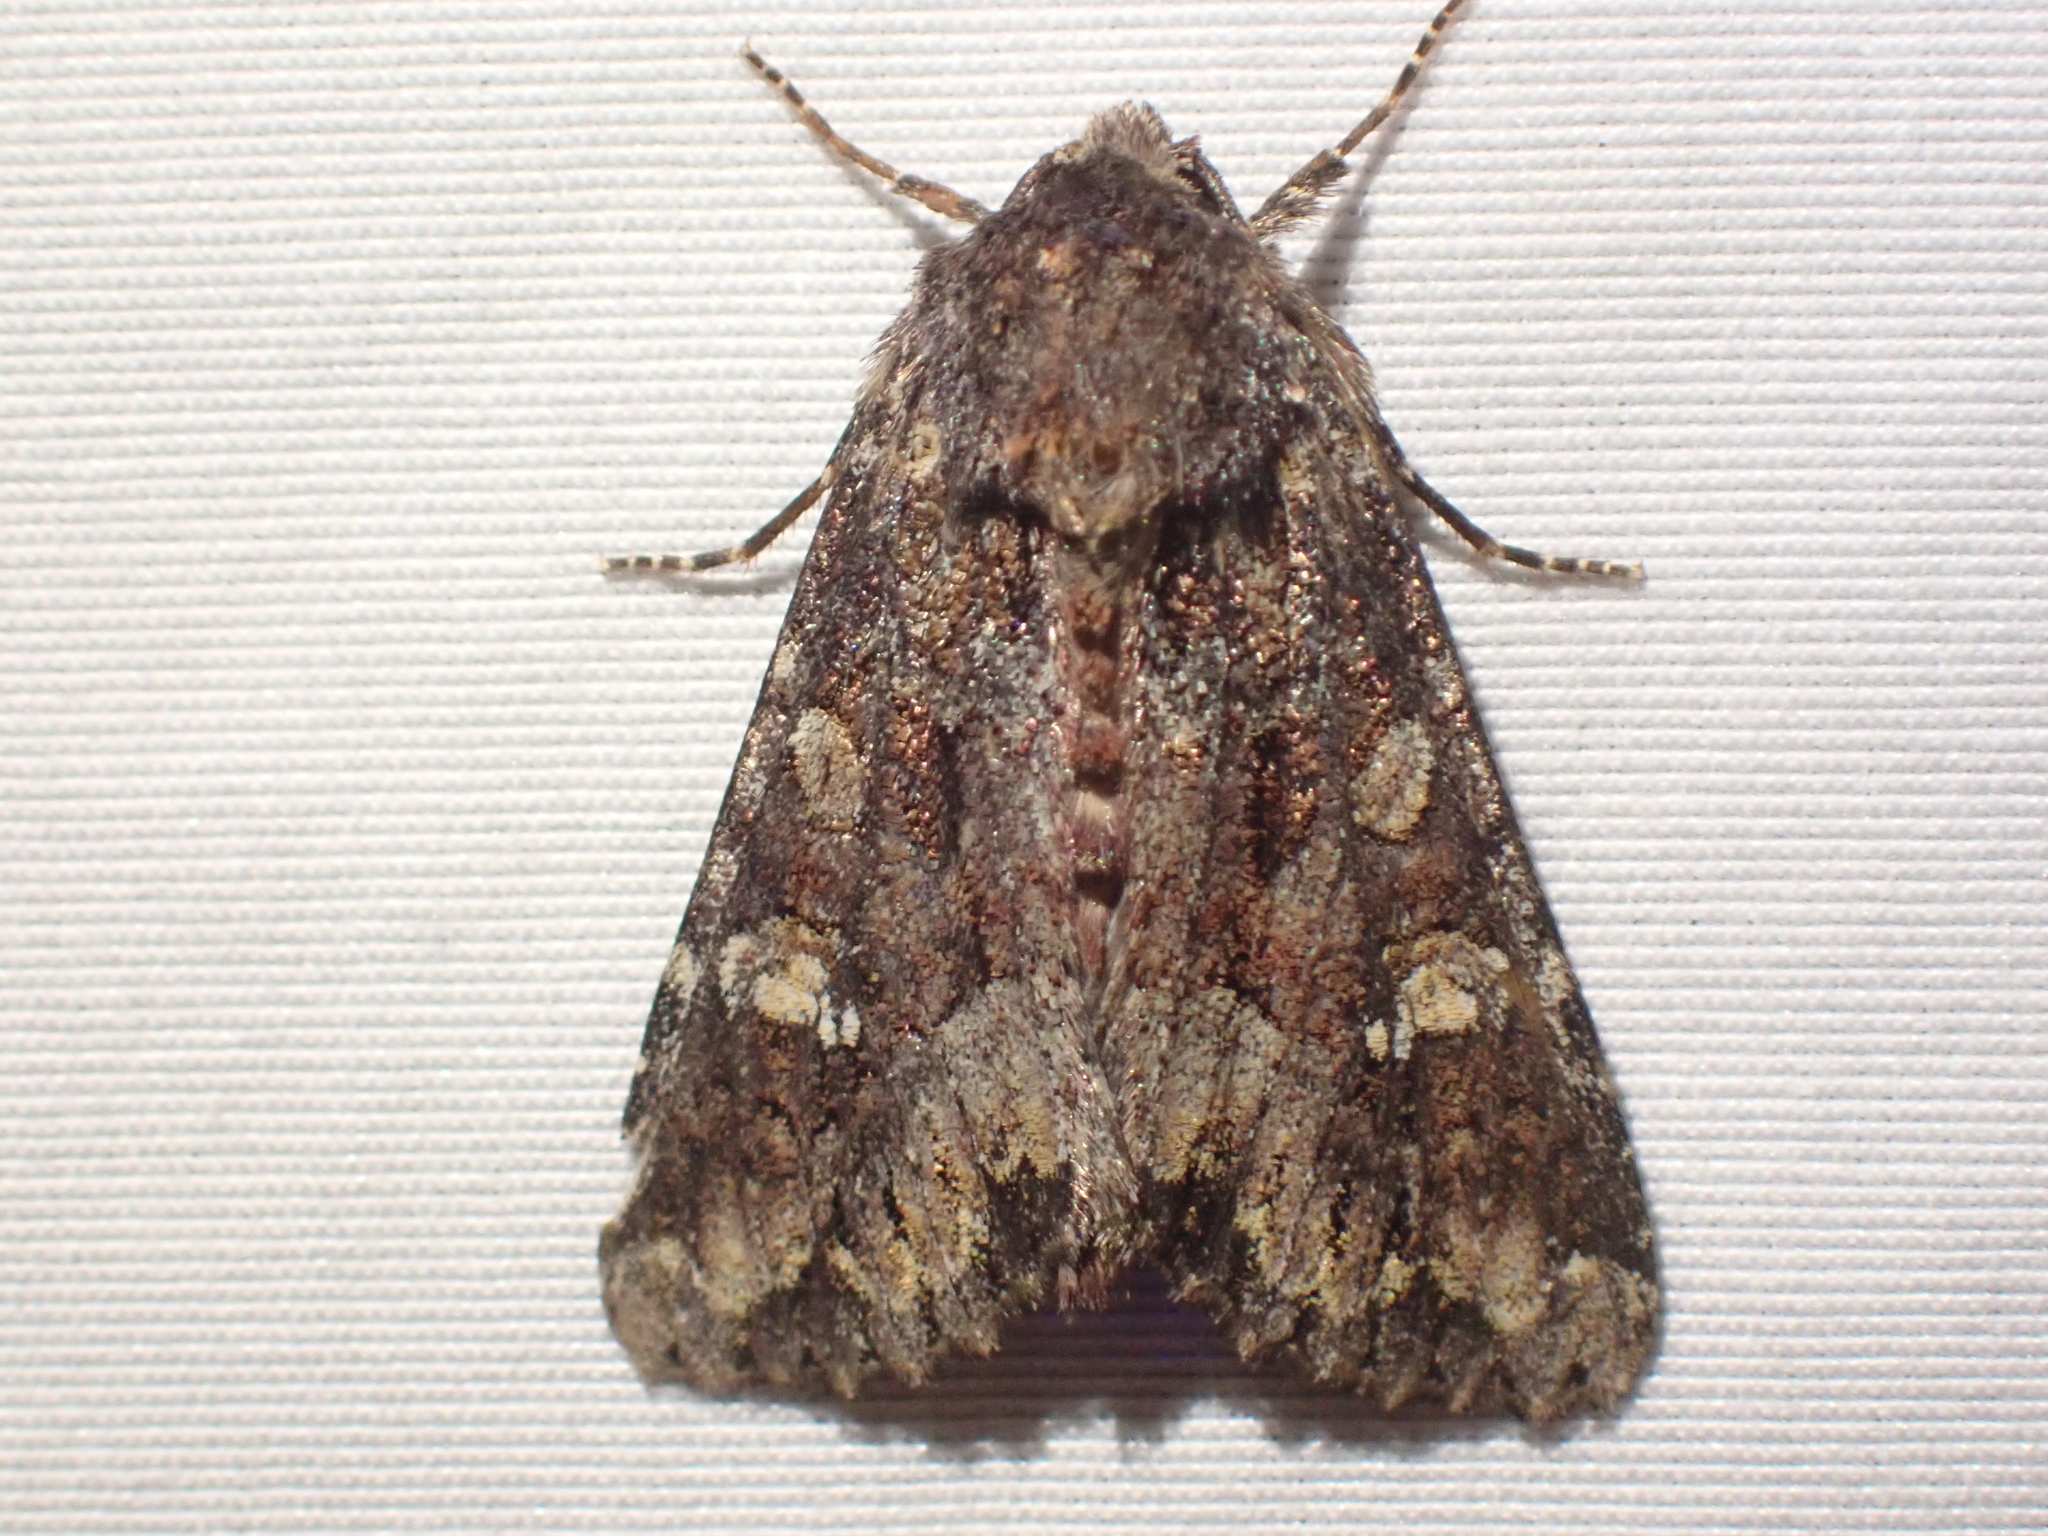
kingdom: Animalia
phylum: Arthropoda
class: Insecta
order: Lepidoptera
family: Noctuidae
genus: Apamea
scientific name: Apamea amputatrix
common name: Yellow-headed cutworm moth
